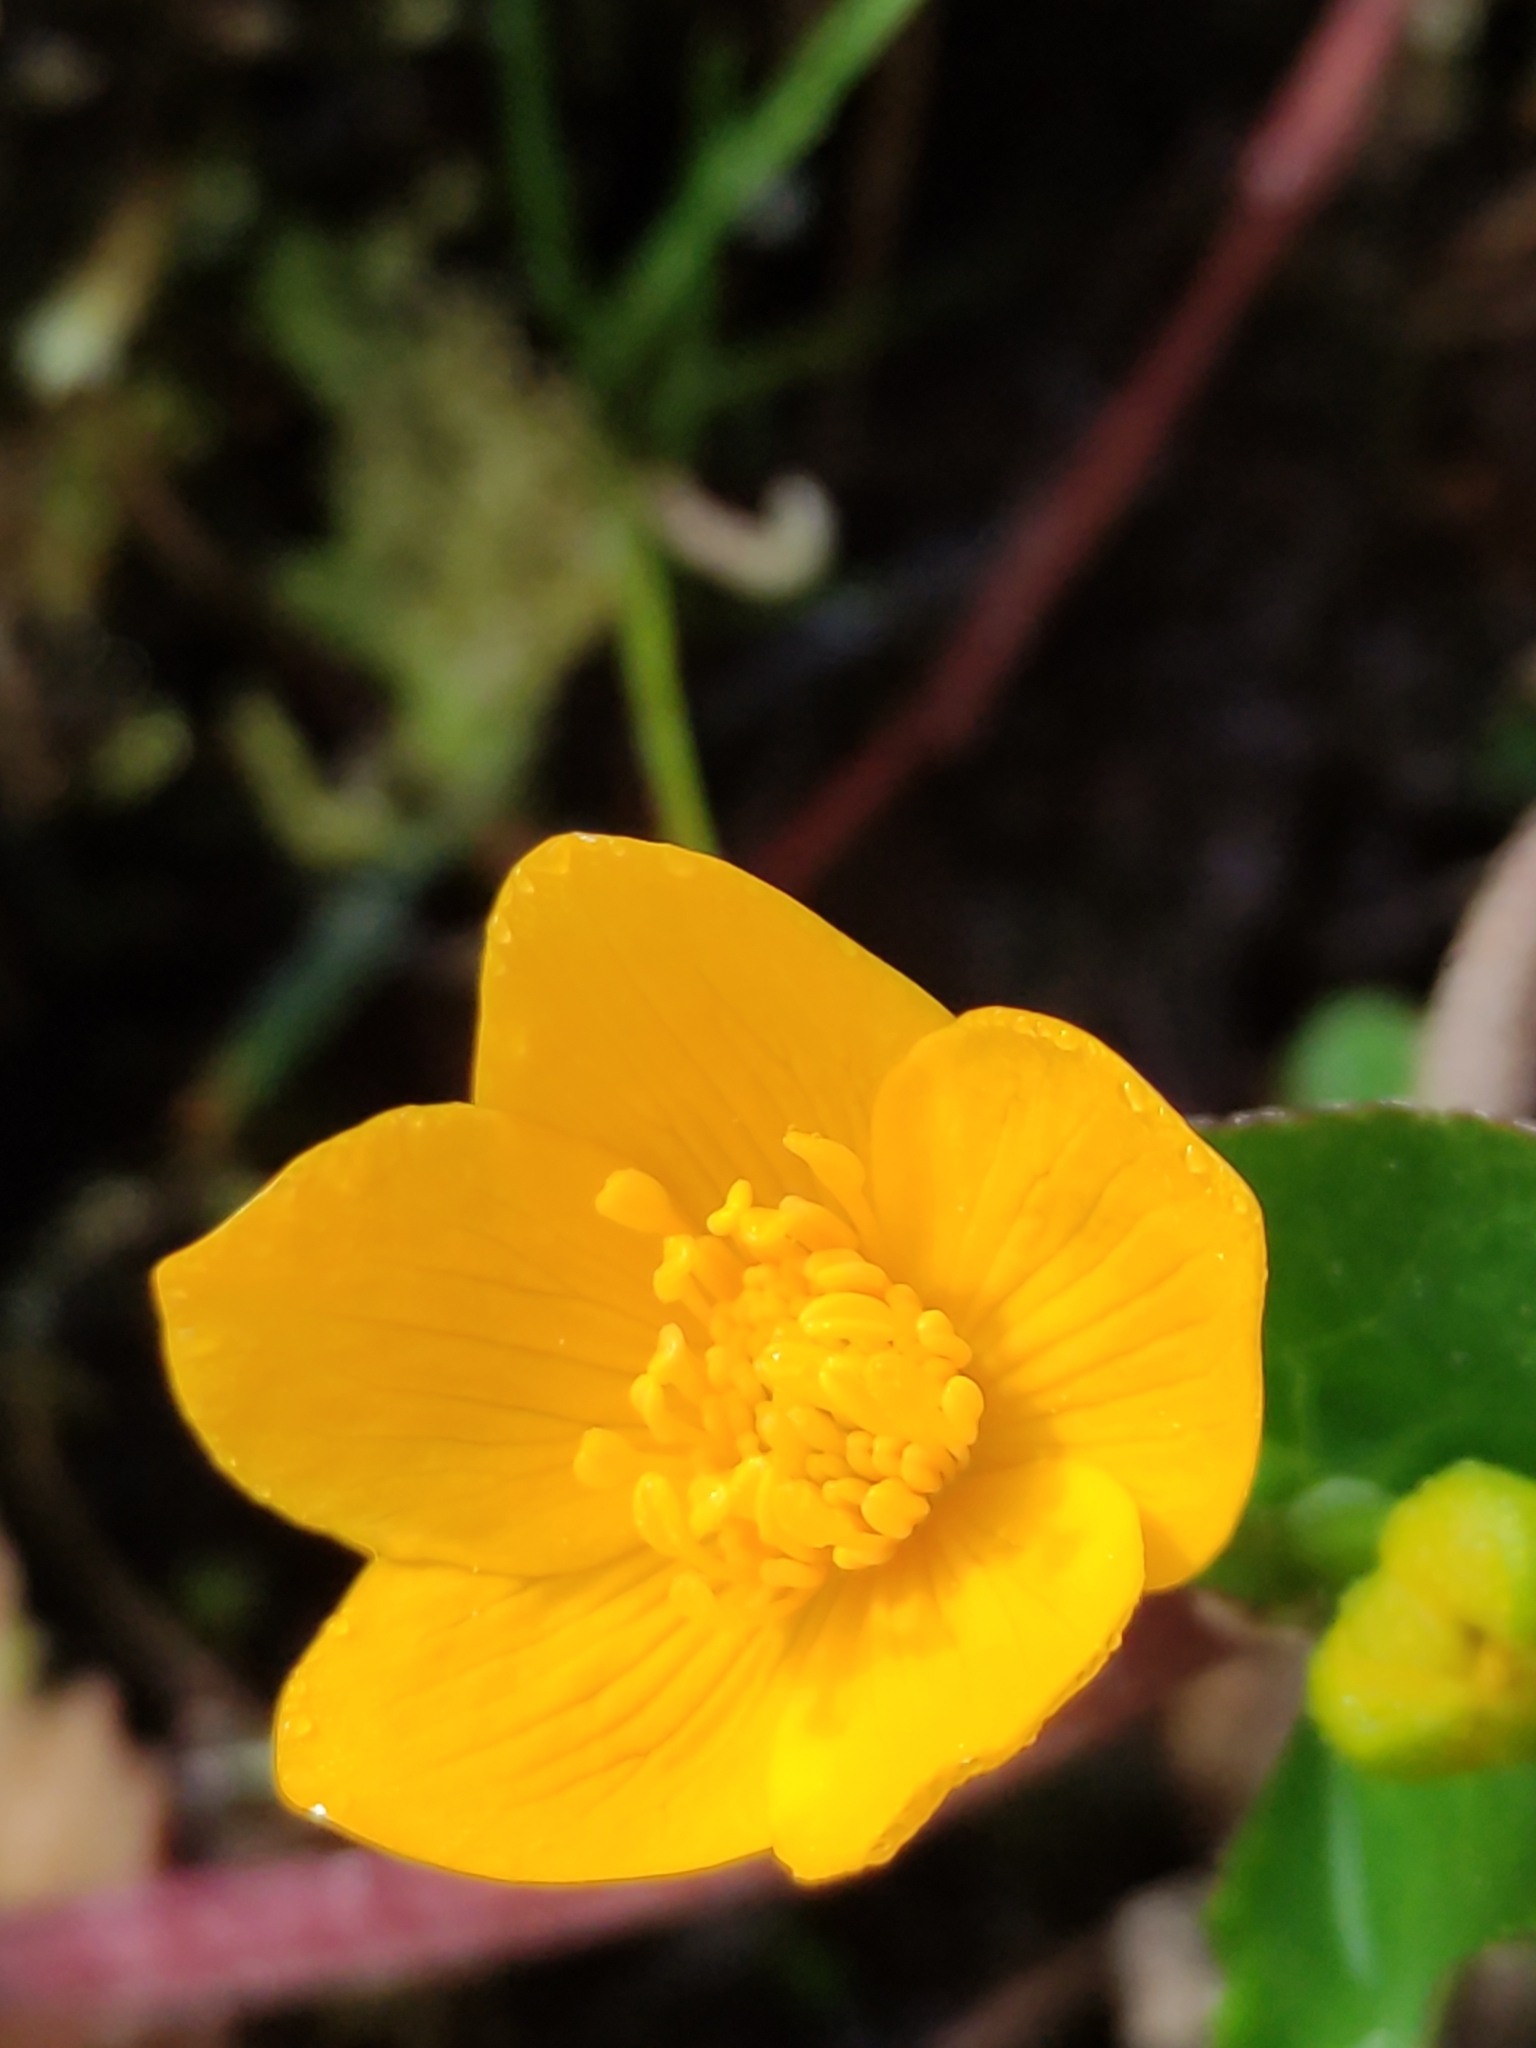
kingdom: Plantae
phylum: Tracheophyta
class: Magnoliopsida
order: Ranunculales
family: Ranunculaceae
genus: Caltha
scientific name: Caltha palustris
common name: Marsh marigold
